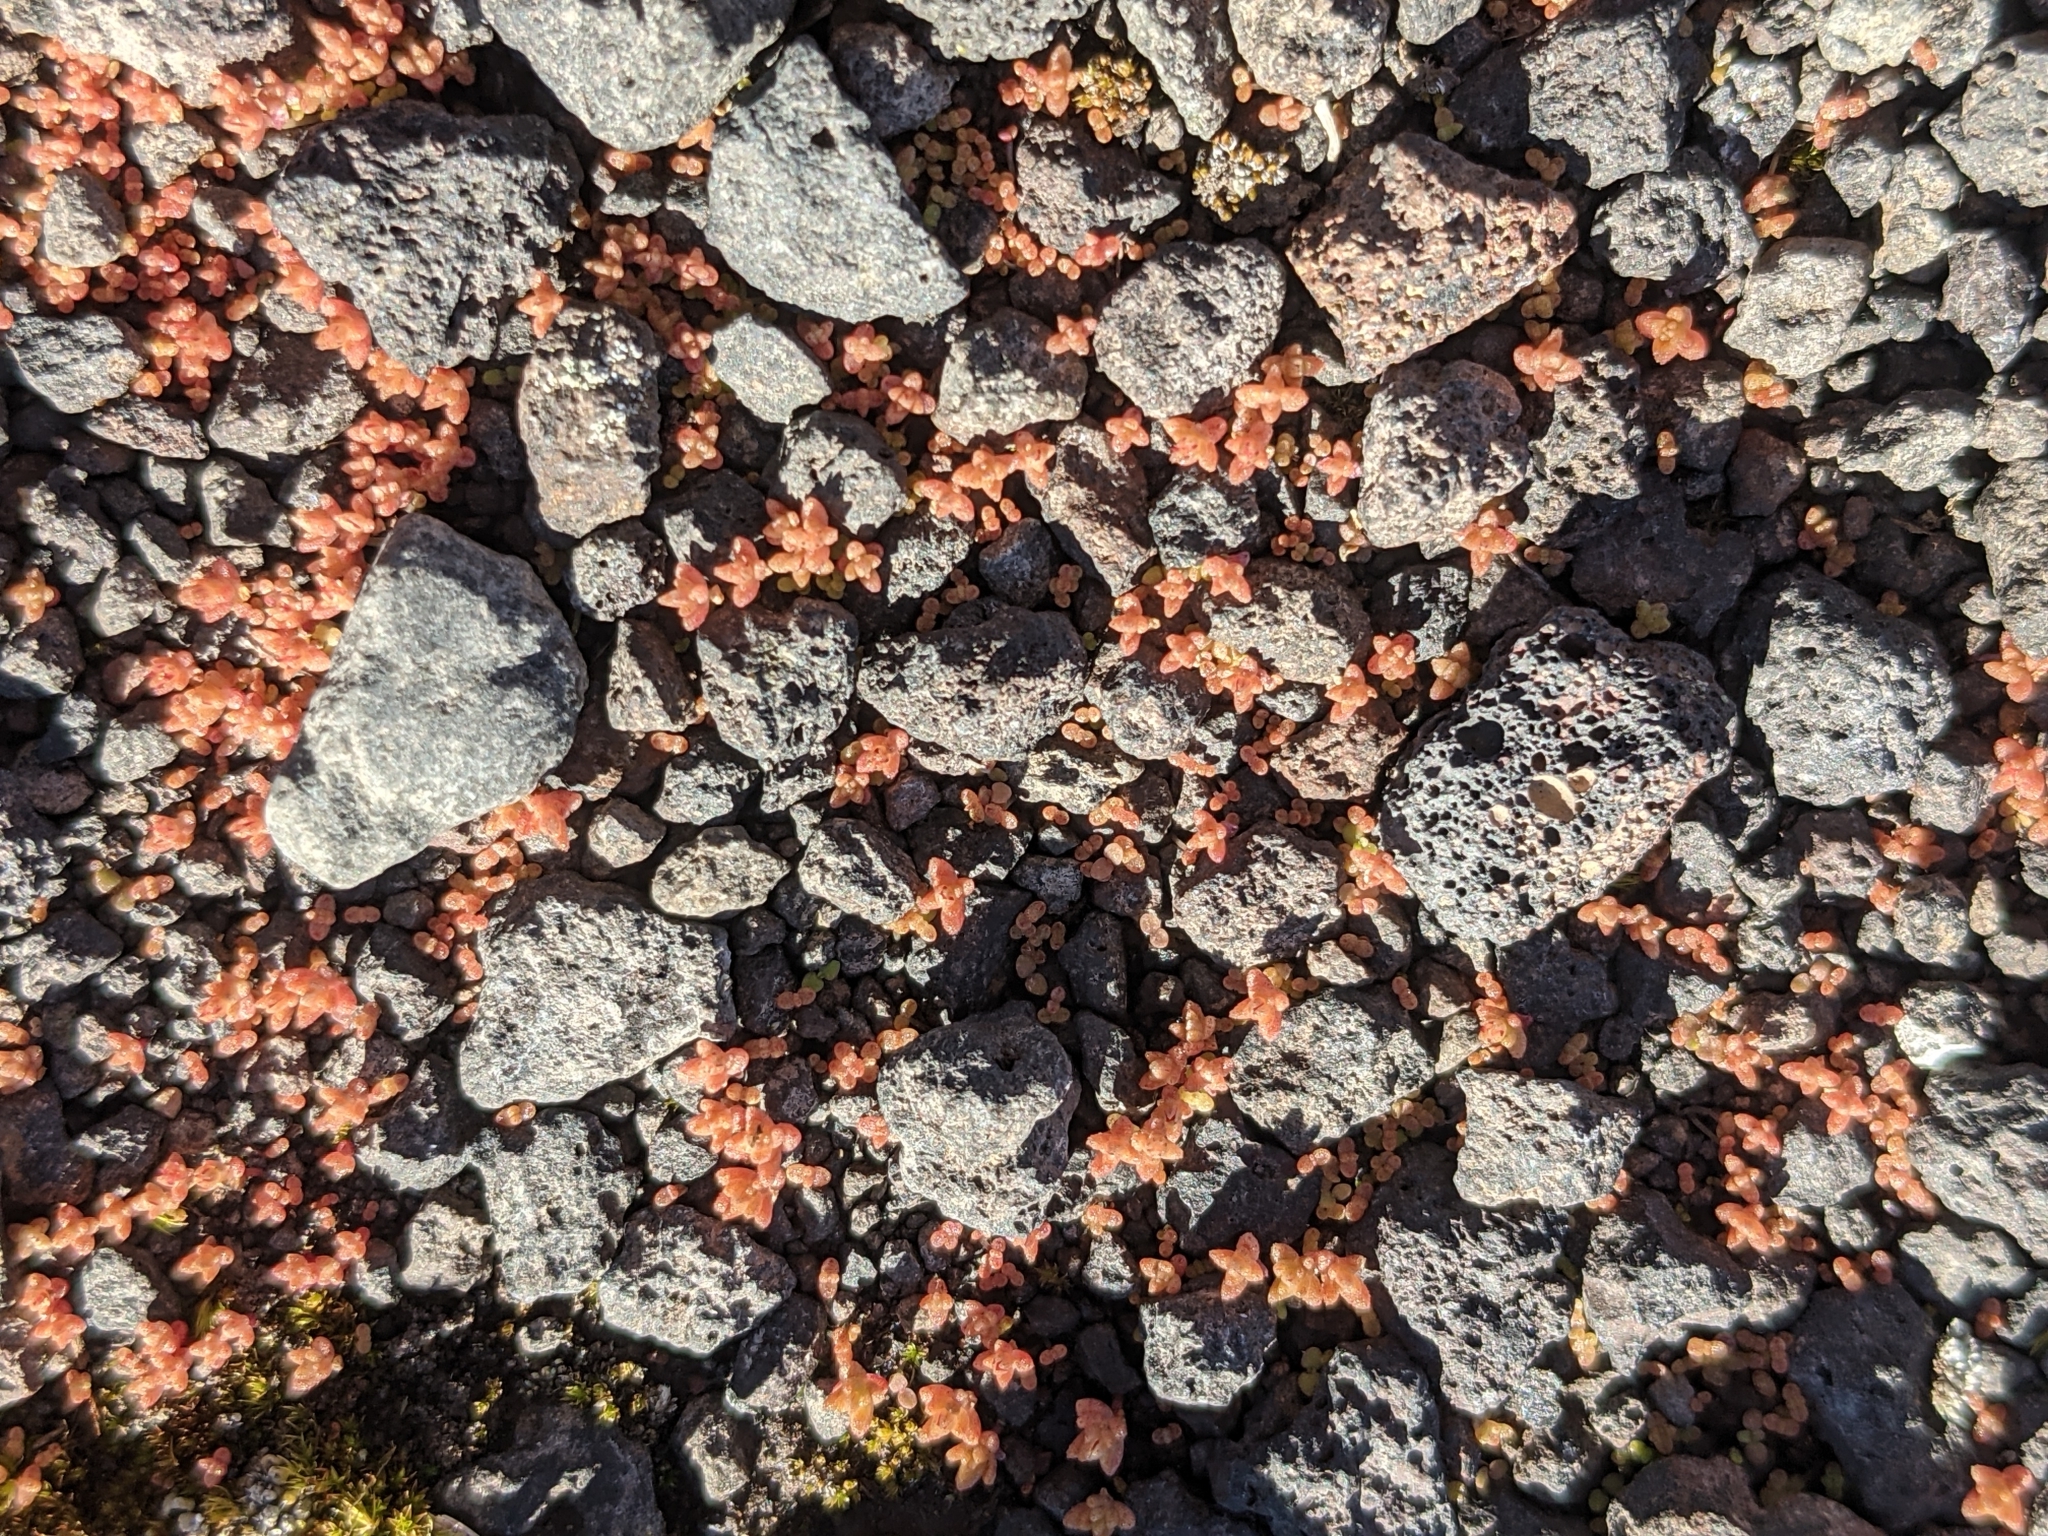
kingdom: Plantae
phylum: Tracheophyta
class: Magnoliopsida
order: Saxifragales
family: Crassulaceae
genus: Crassula
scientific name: Crassula sieberiana
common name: Siberian pygmyweed
